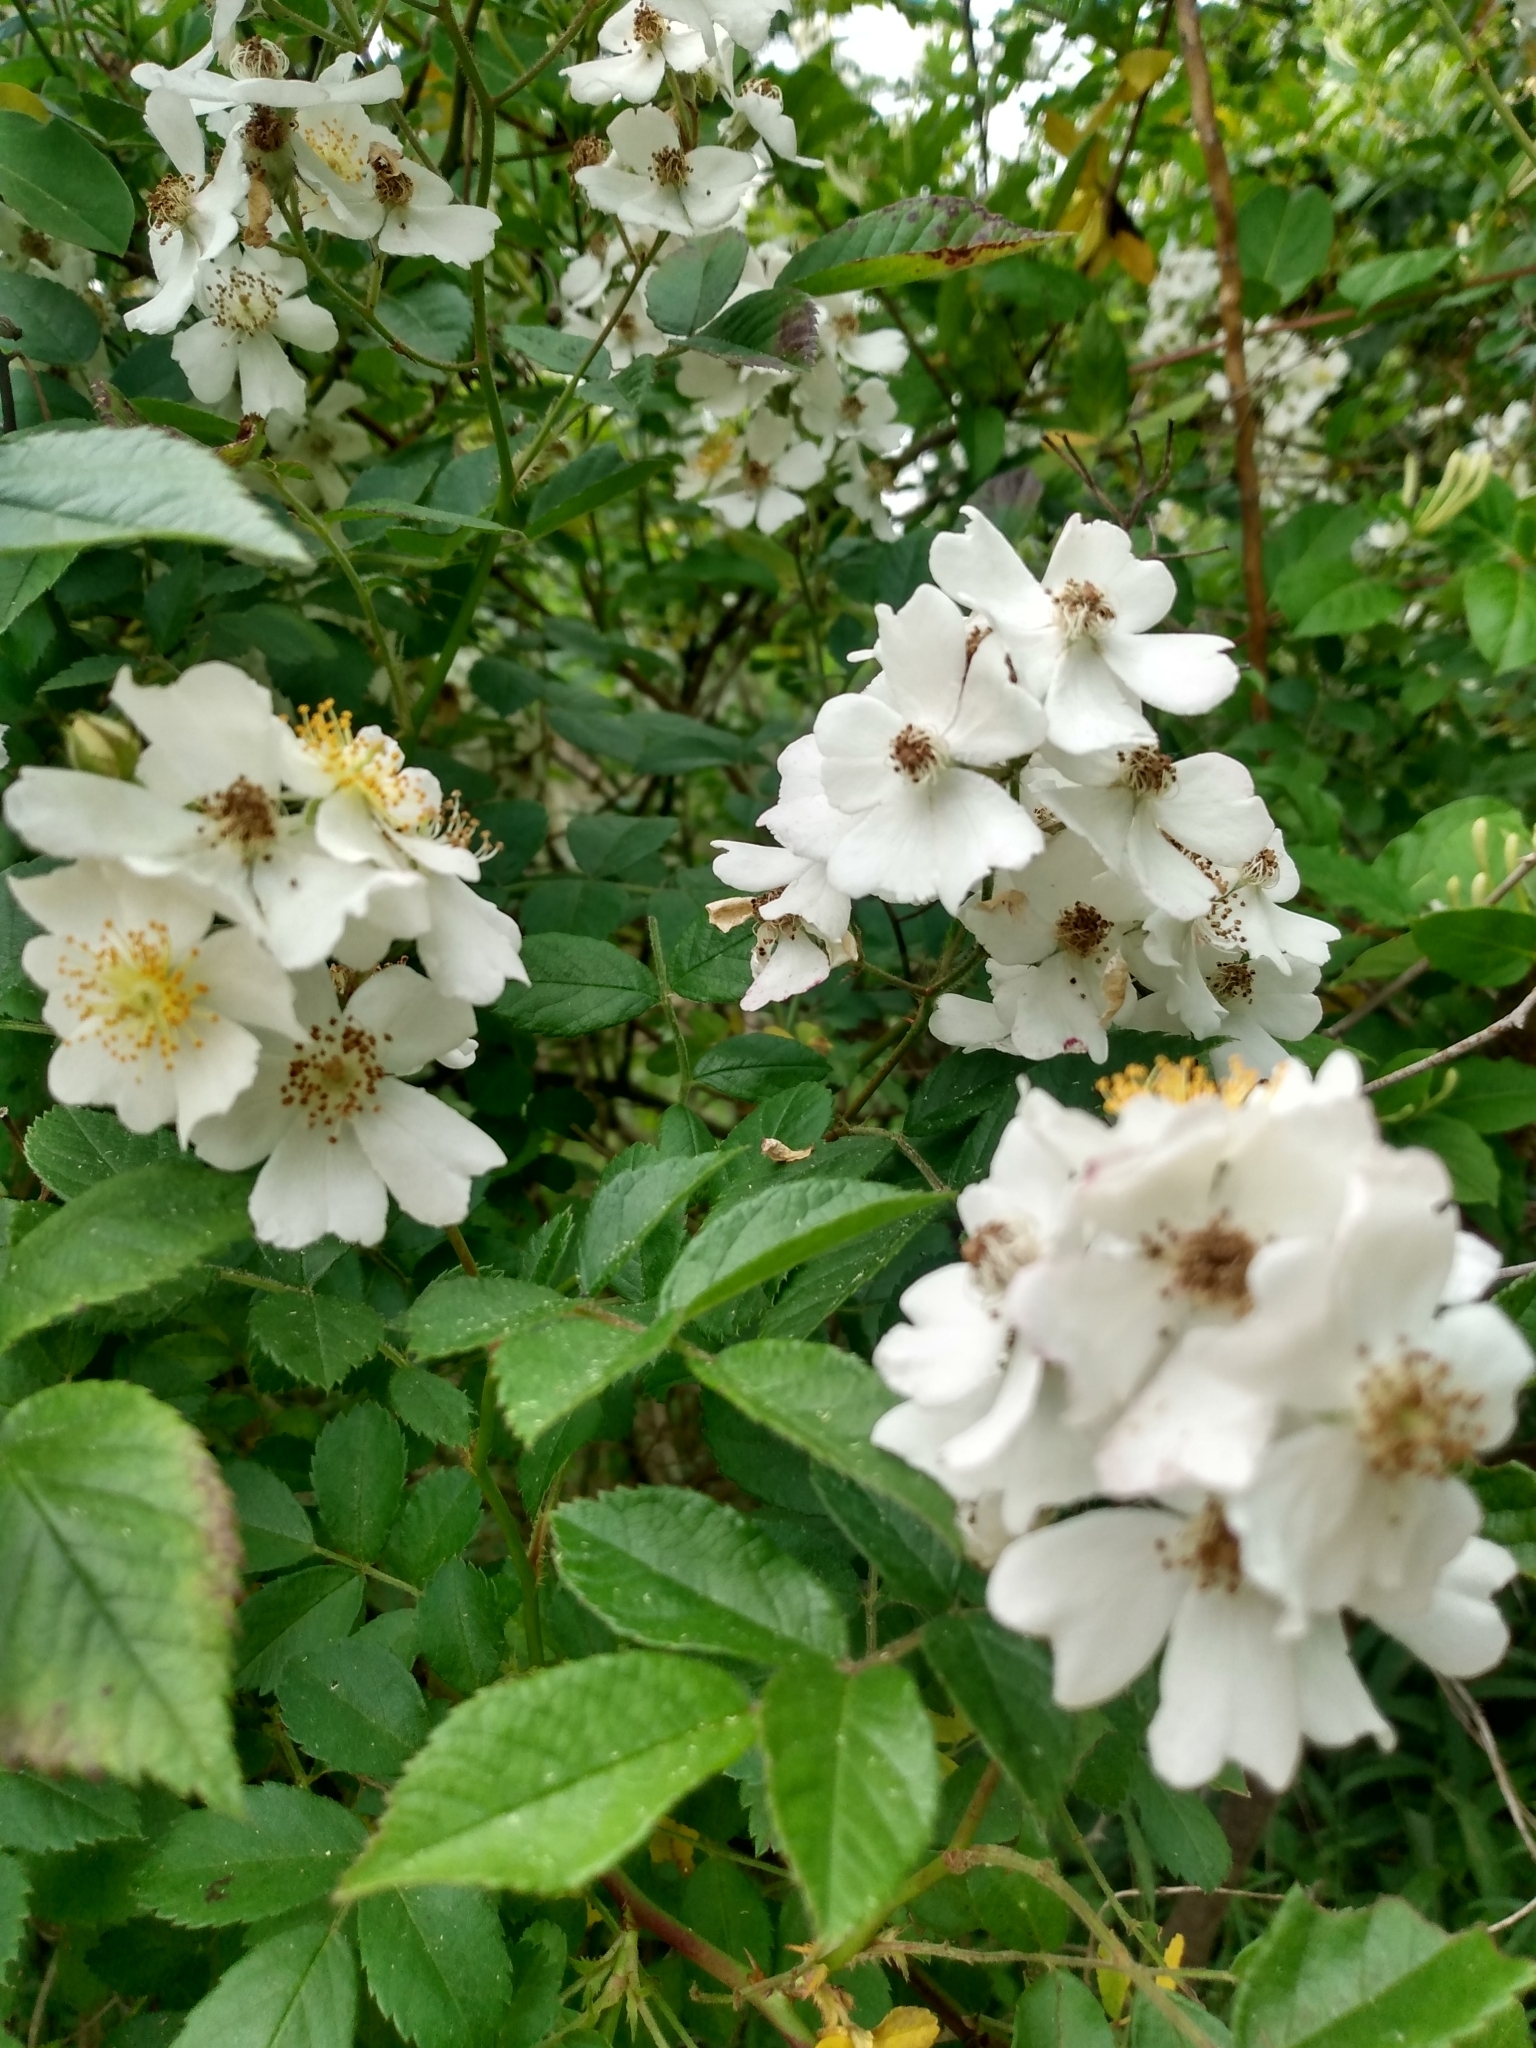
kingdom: Plantae
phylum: Tracheophyta
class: Magnoliopsida
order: Rosales
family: Rosaceae
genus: Rosa
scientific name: Rosa multiflora
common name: Multiflora rose
